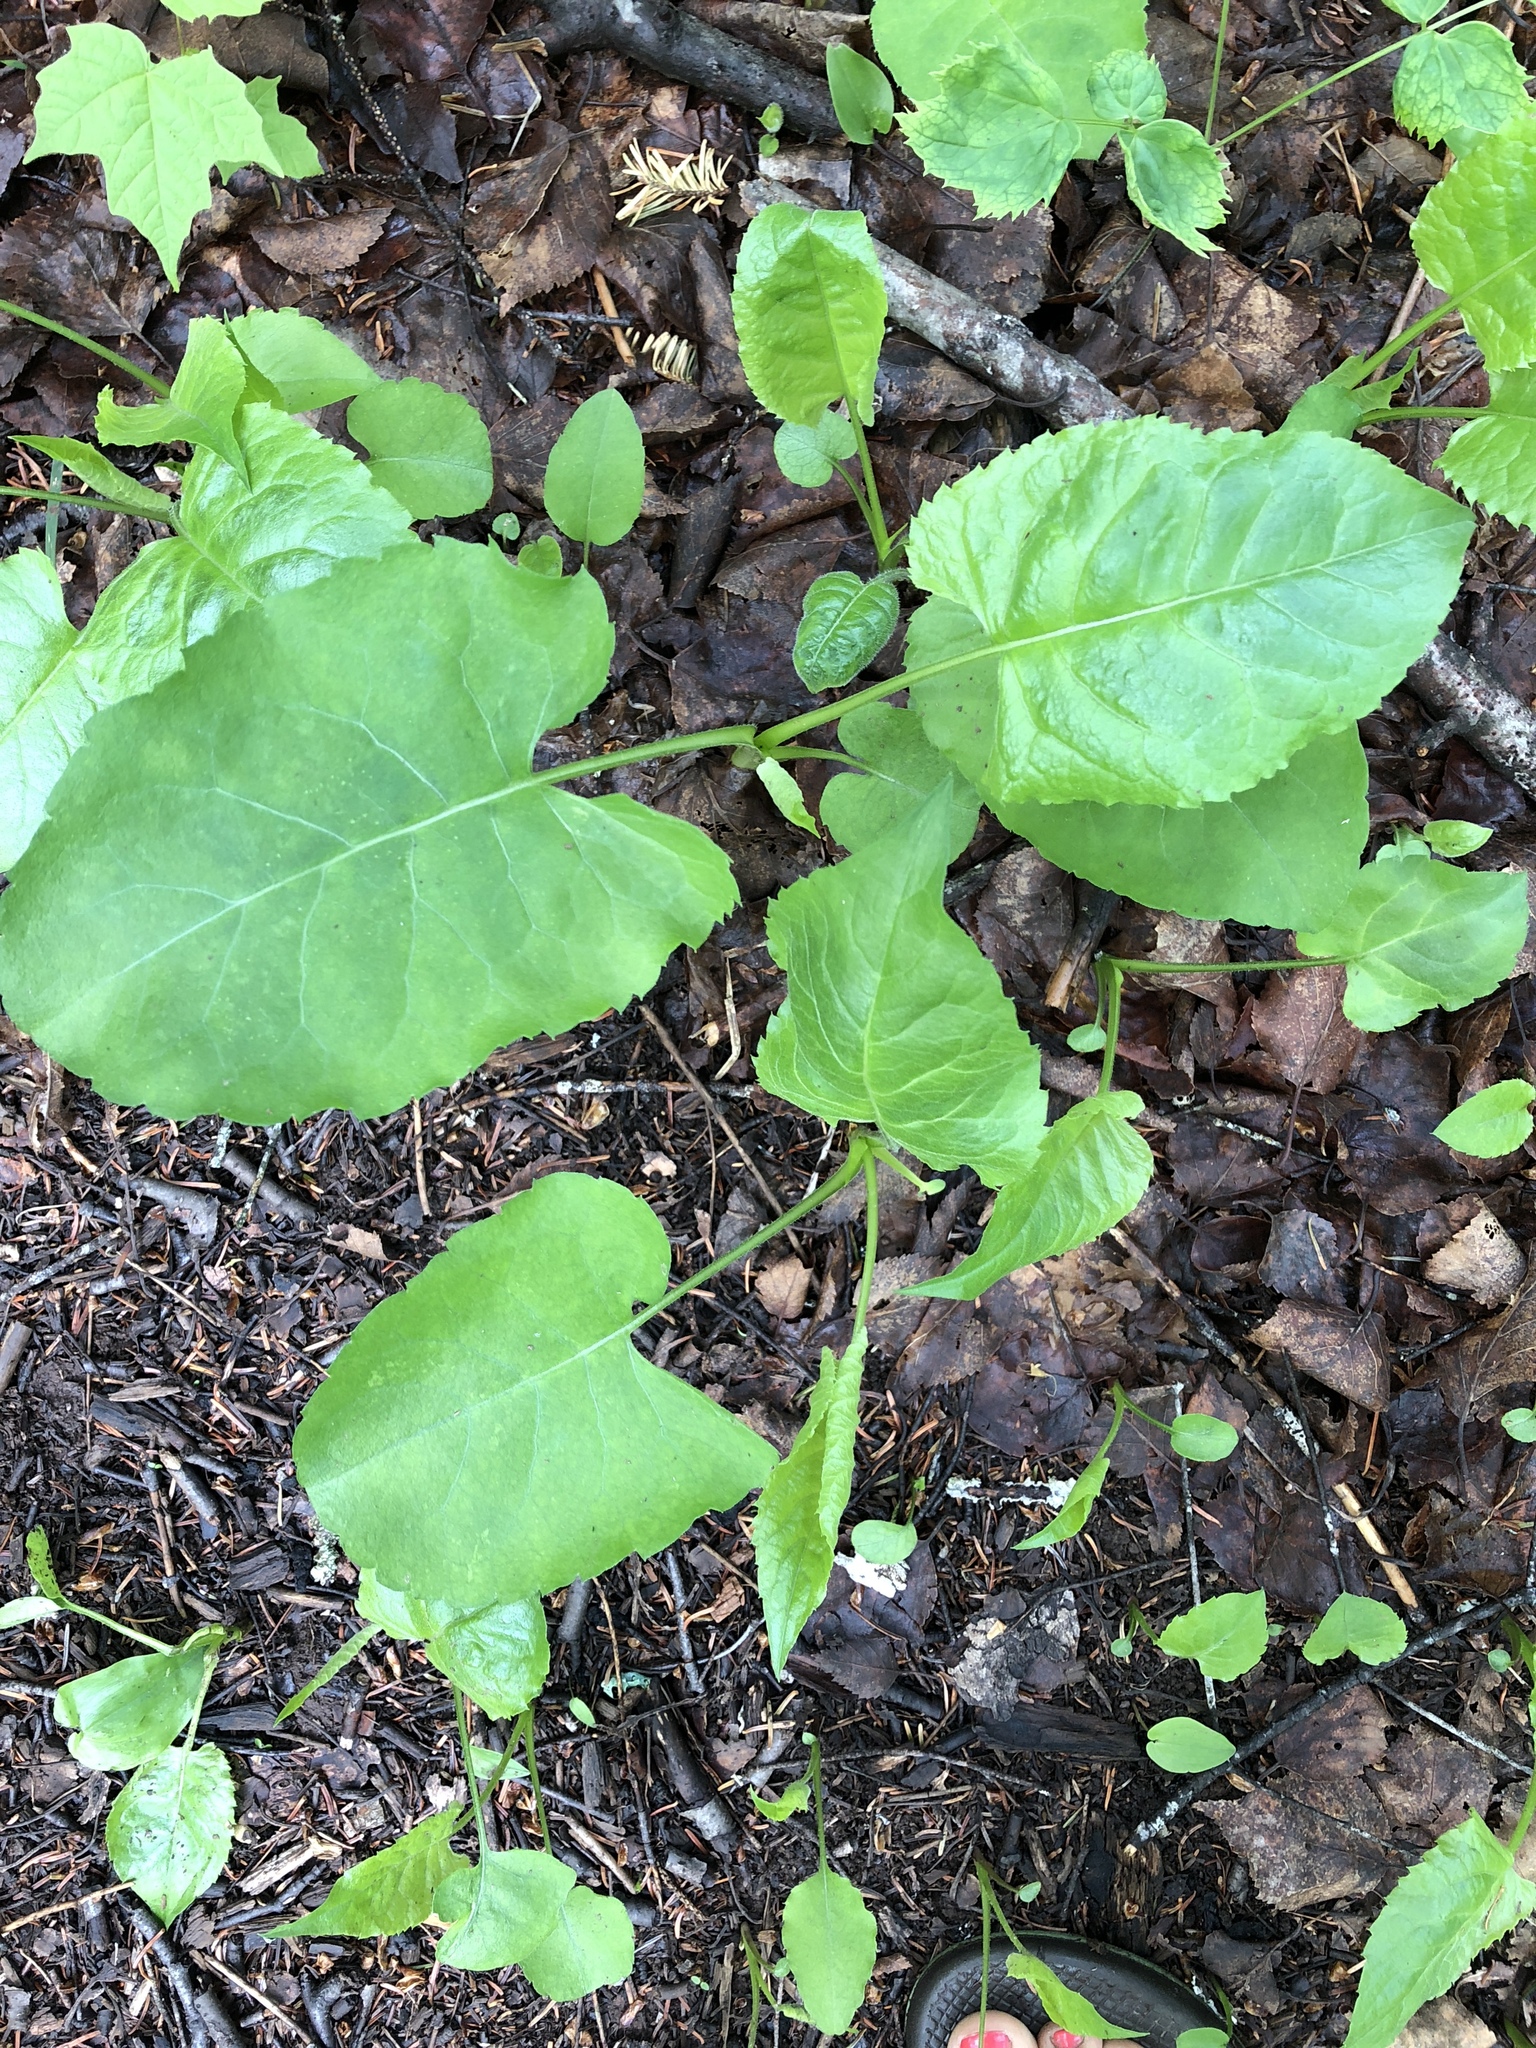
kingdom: Plantae
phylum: Tracheophyta
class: Magnoliopsida
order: Asterales
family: Asteraceae
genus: Eurybia
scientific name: Eurybia macrophylla
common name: Big-leaved aster
